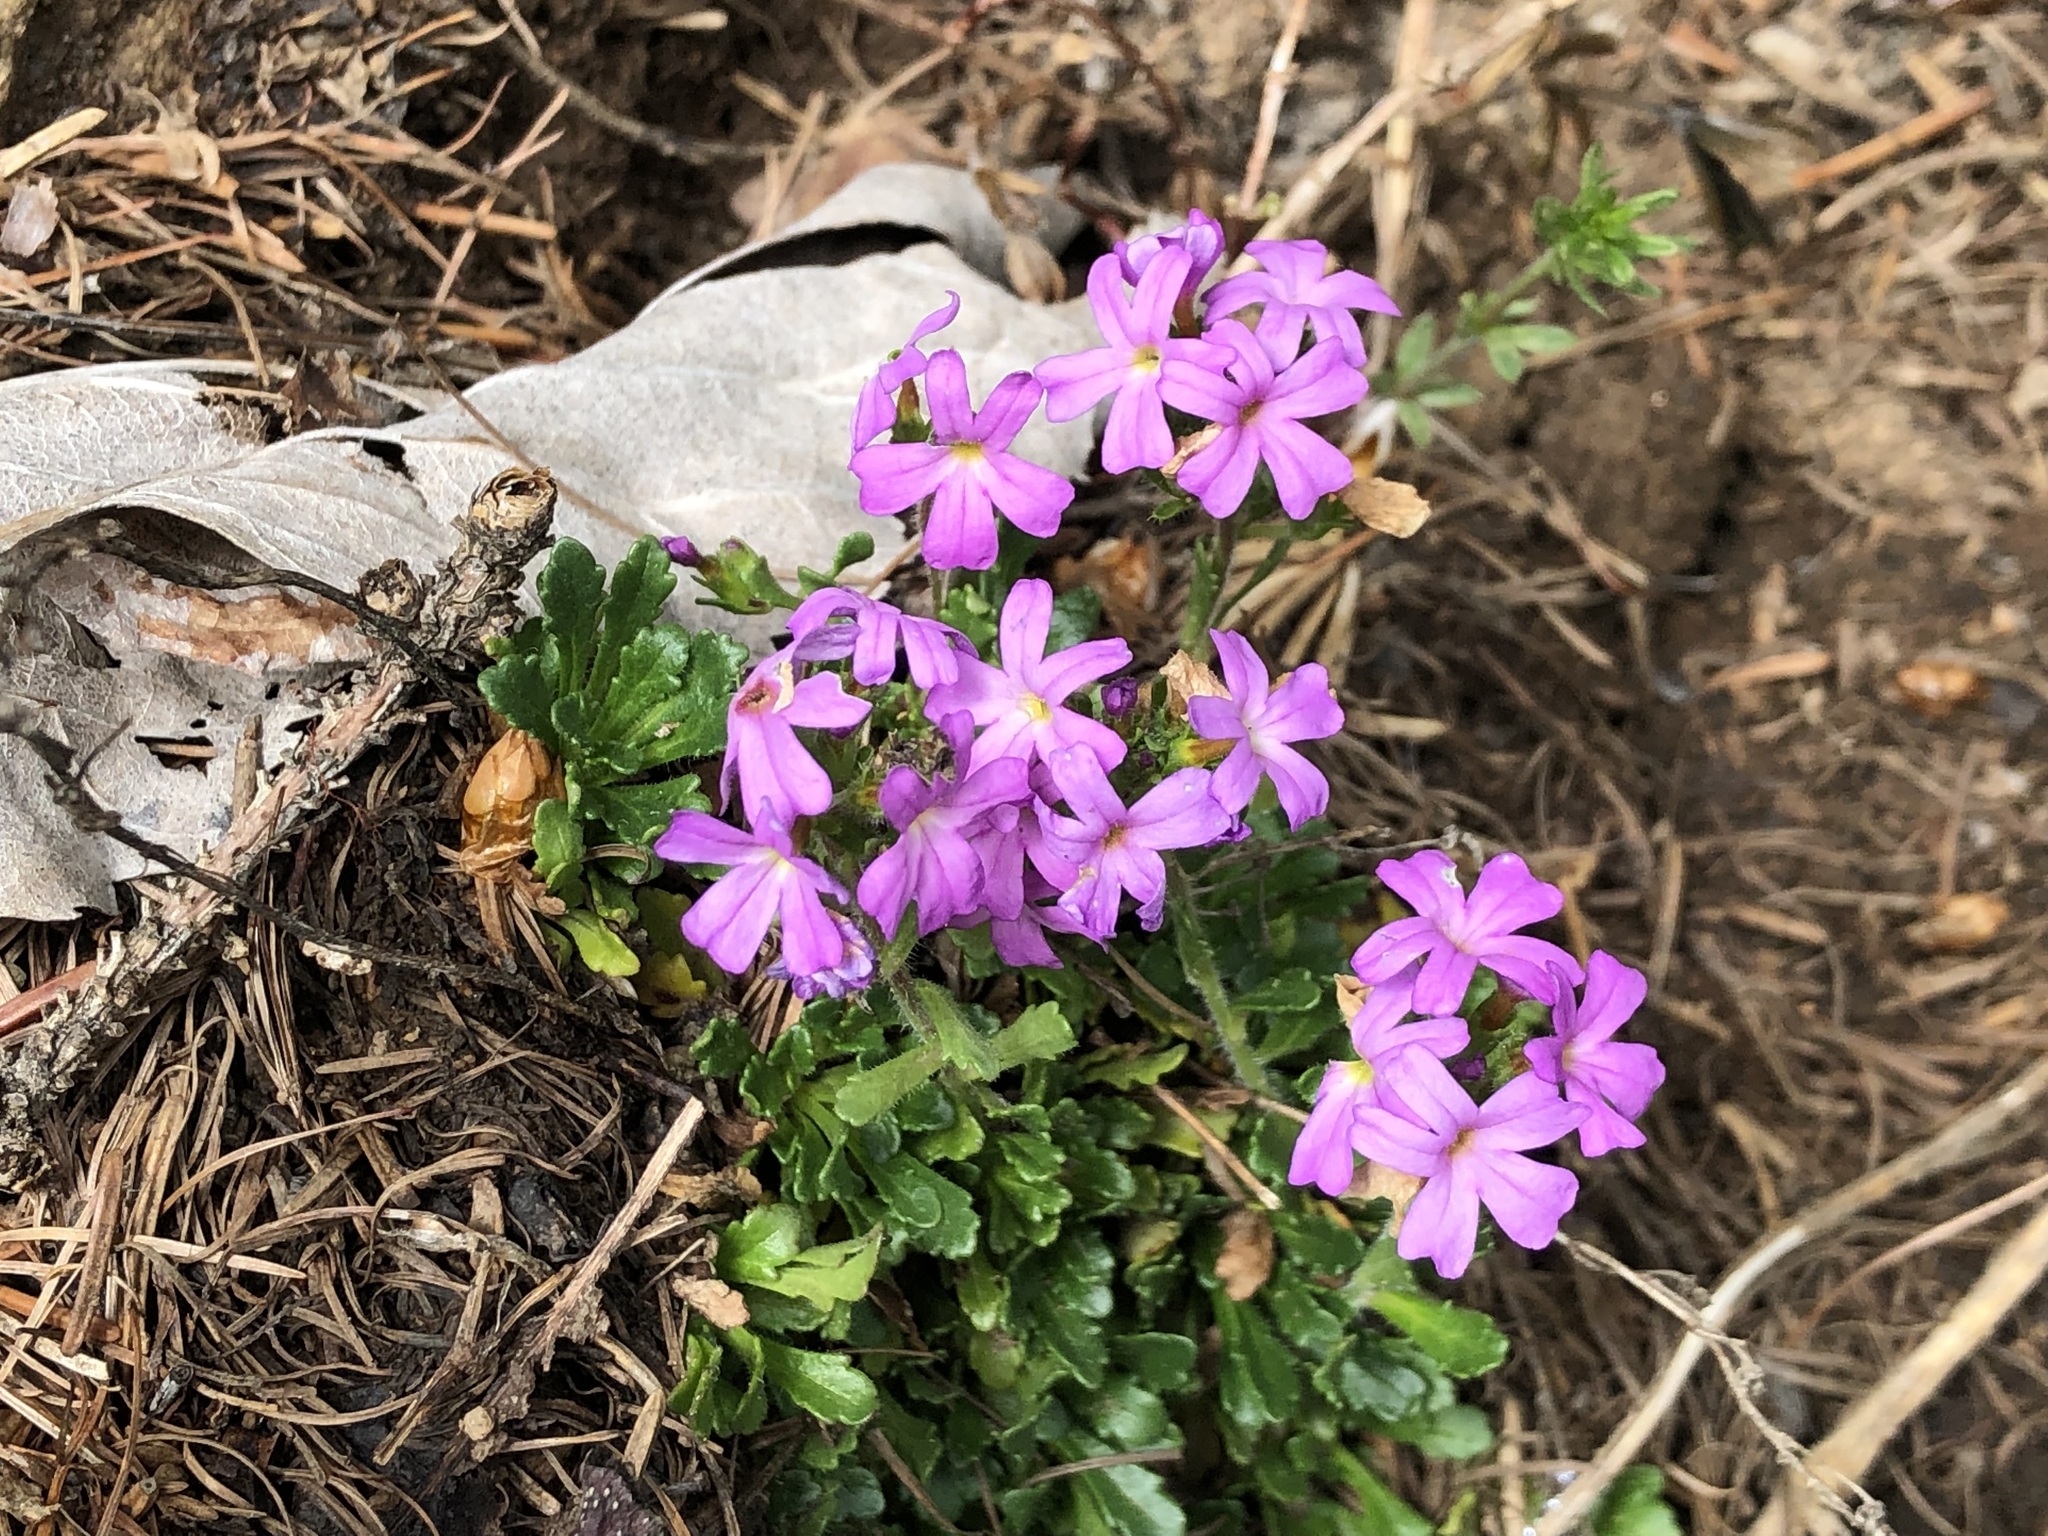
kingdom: Plantae
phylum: Tracheophyta
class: Magnoliopsida
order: Lamiales
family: Plantaginaceae
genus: Erinus
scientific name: Erinus alpinus
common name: Fairy foxglove
